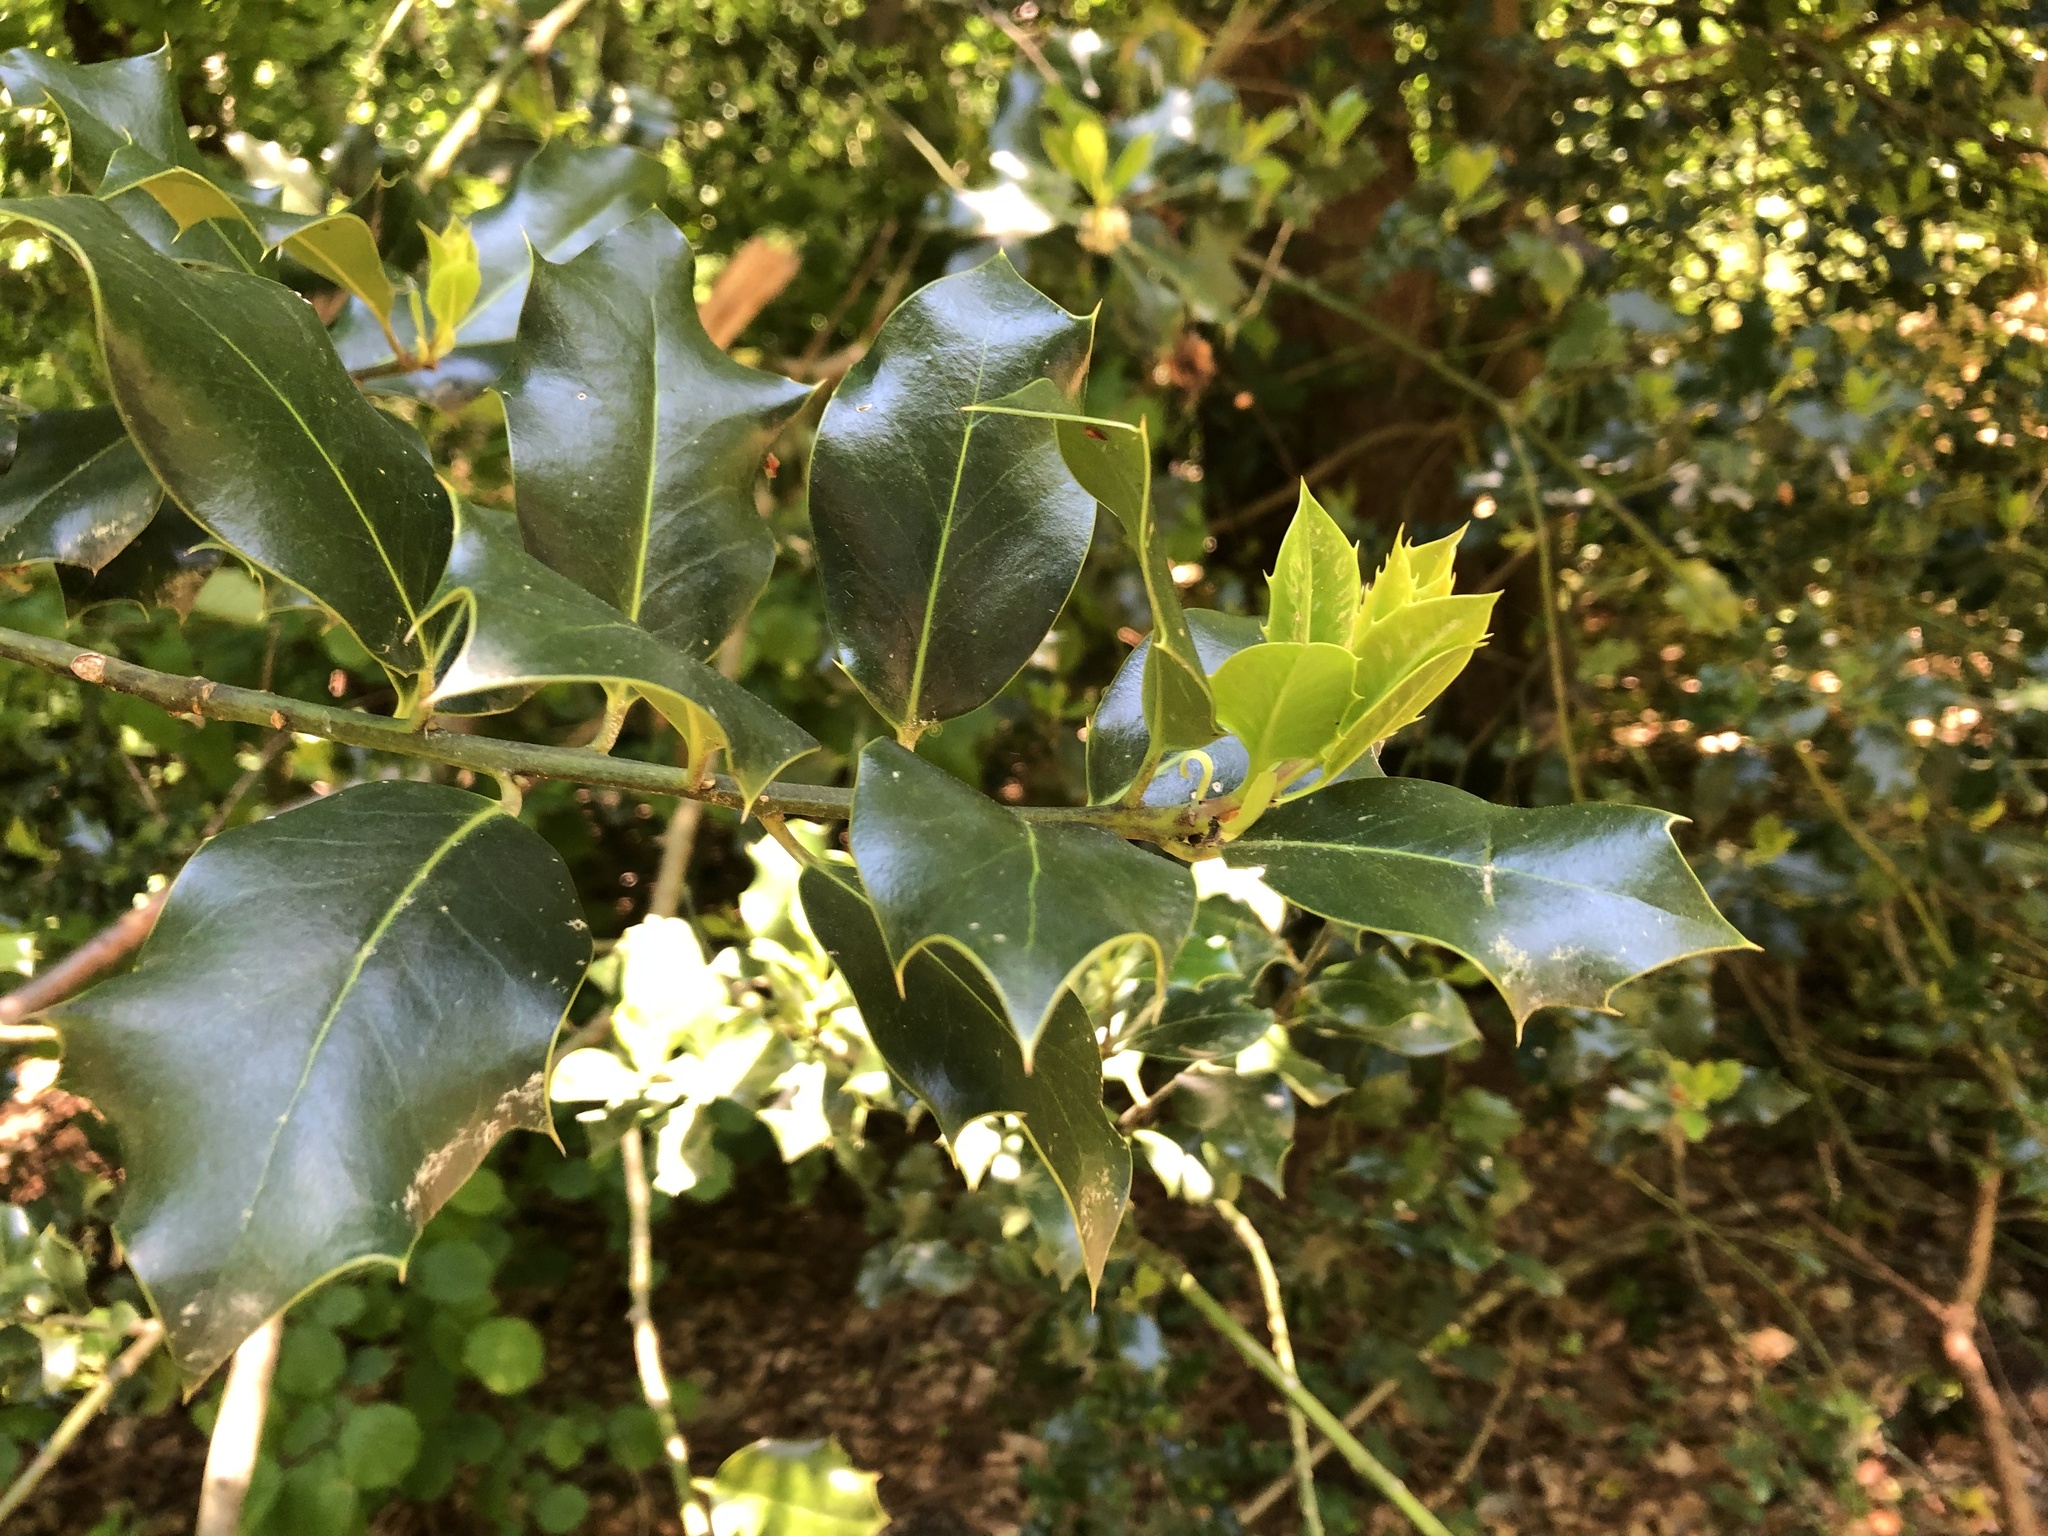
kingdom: Plantae
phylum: Tracheophyta
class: Magnoliopsida
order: Aquifoliales
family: Aquifoliaceae
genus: Ilex
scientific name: Ilex aquifolium
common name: English holly
